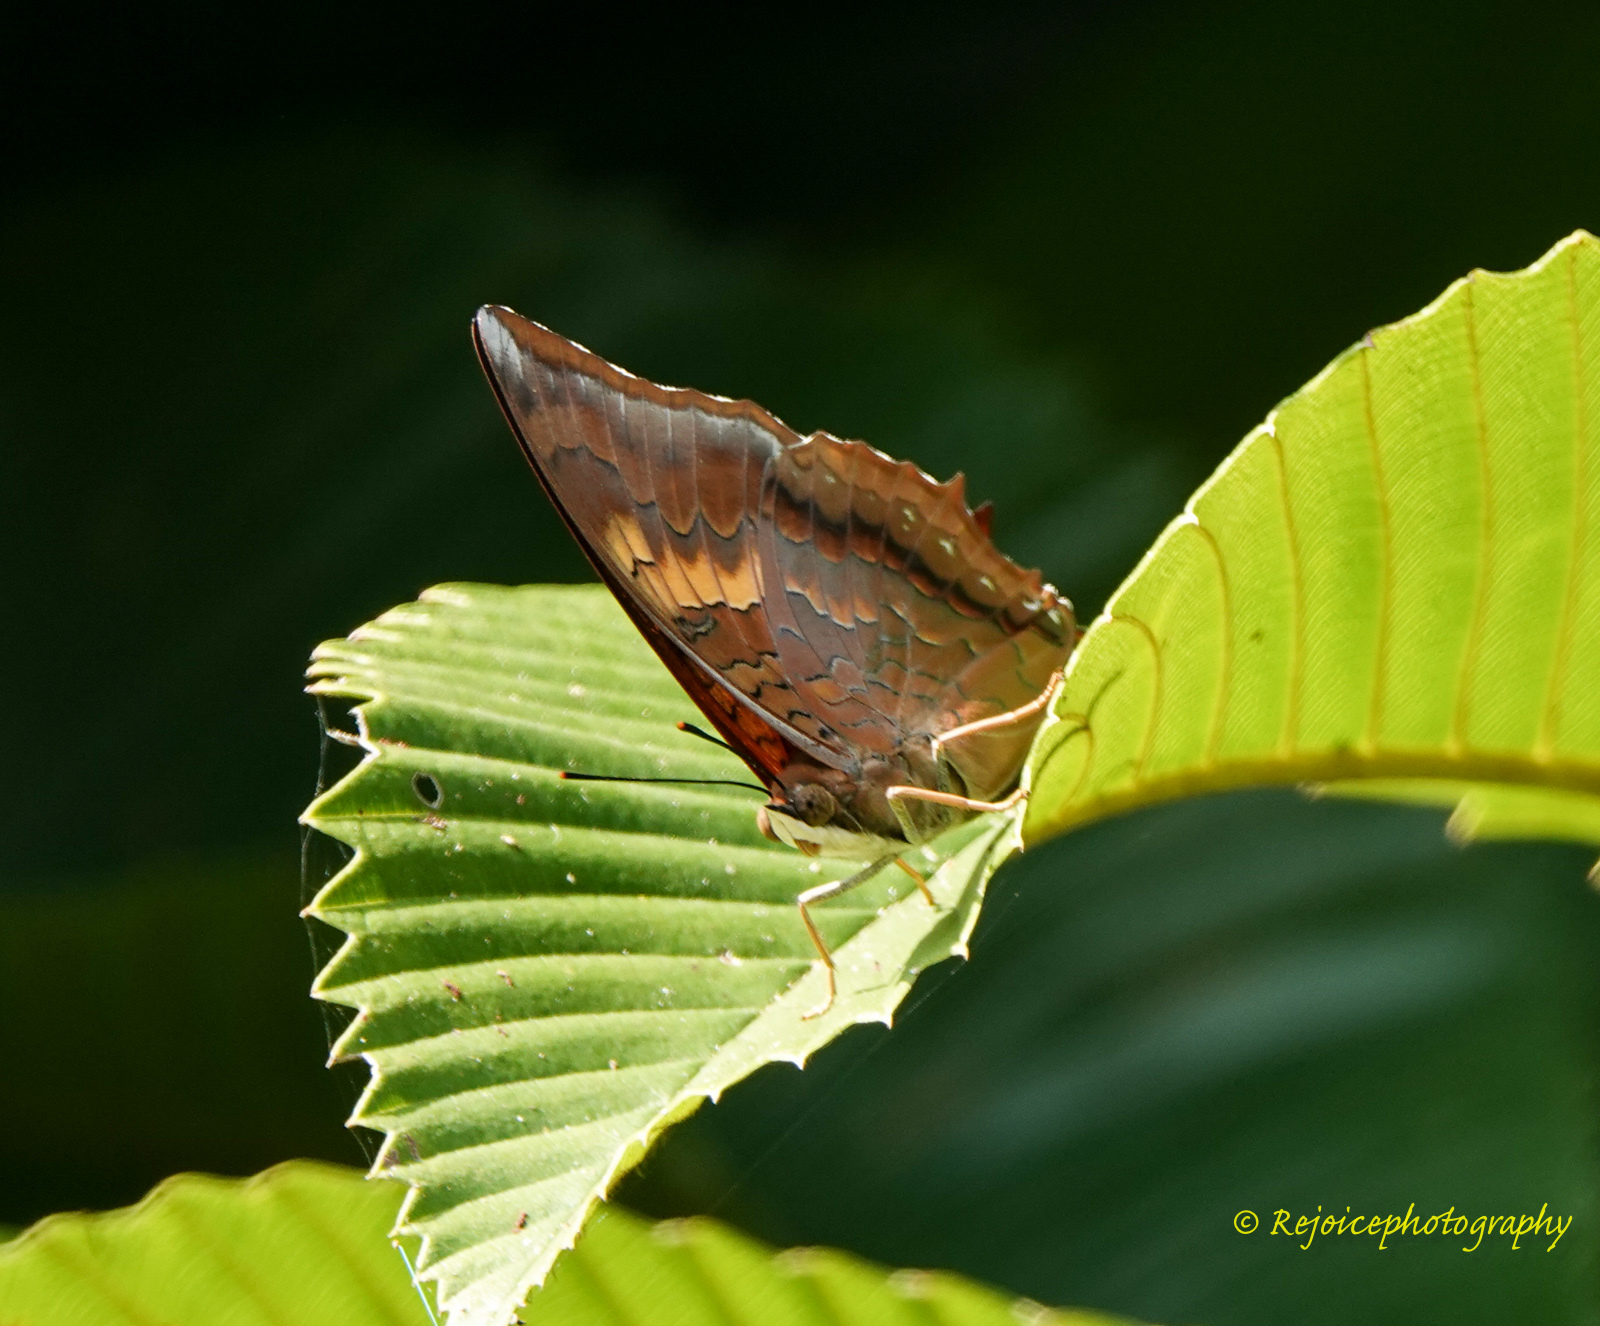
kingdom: Animalia
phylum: Arthropoda
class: Insecta
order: Lepidoptera
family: Nymphalidae
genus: Charaxes
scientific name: Charaxes bernardus
